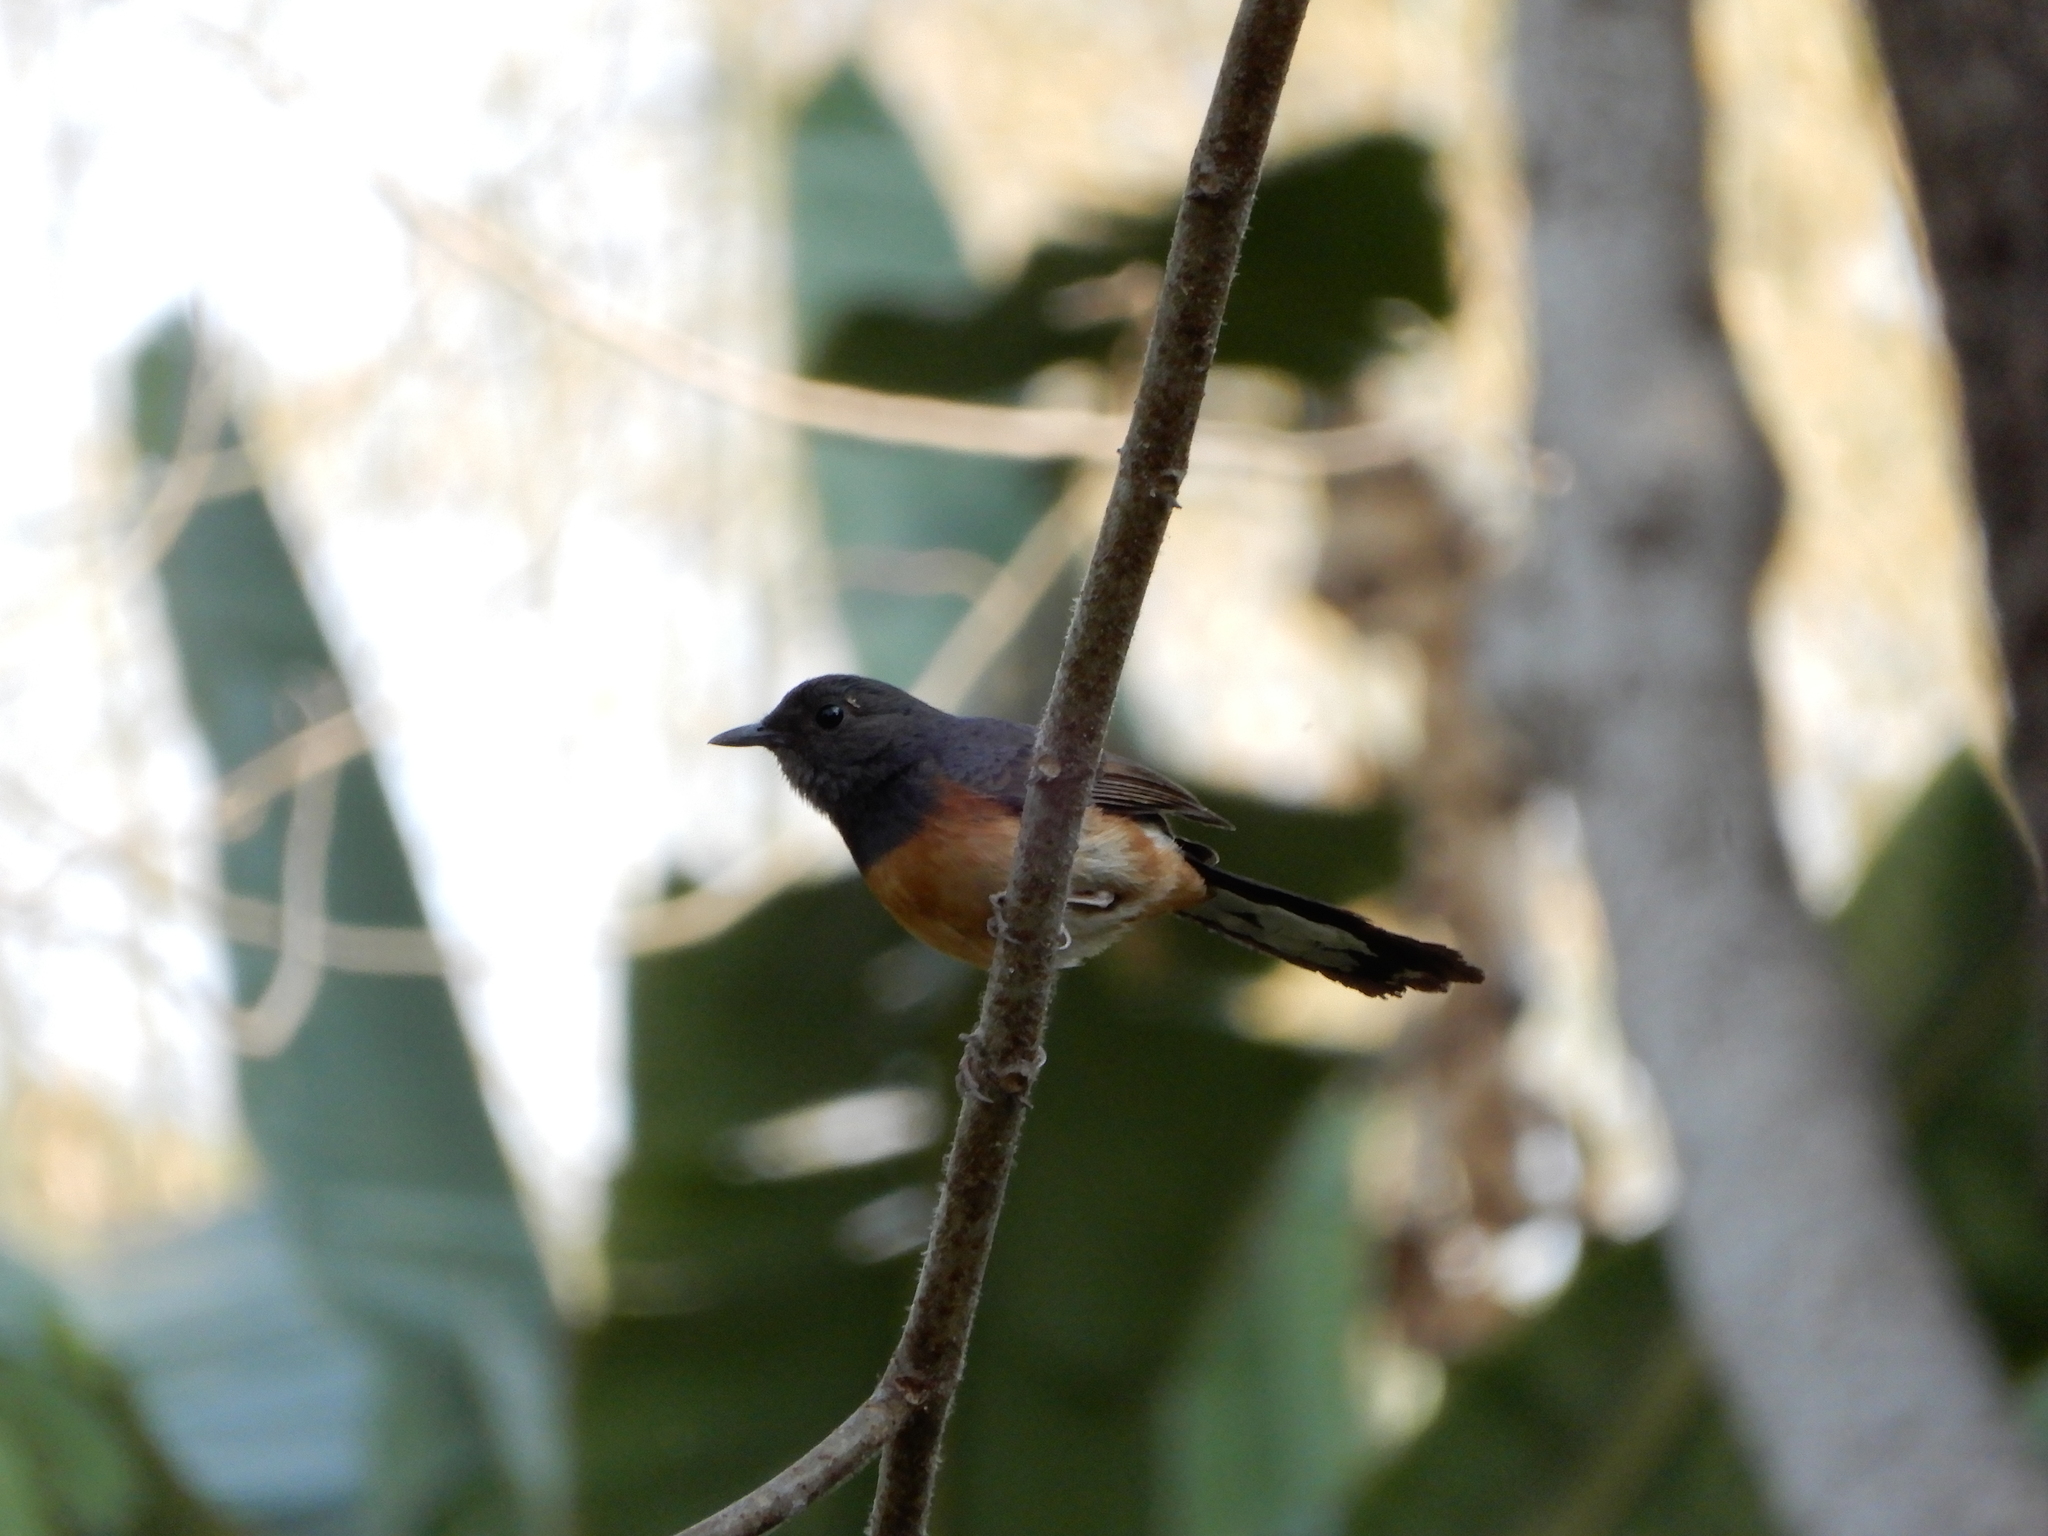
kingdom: Animalia
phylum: Chordata
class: Aves
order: Passeriformes
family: Muscicapidae
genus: Copsychus
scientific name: Copsychus malabaricus
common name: White-rumped shama
